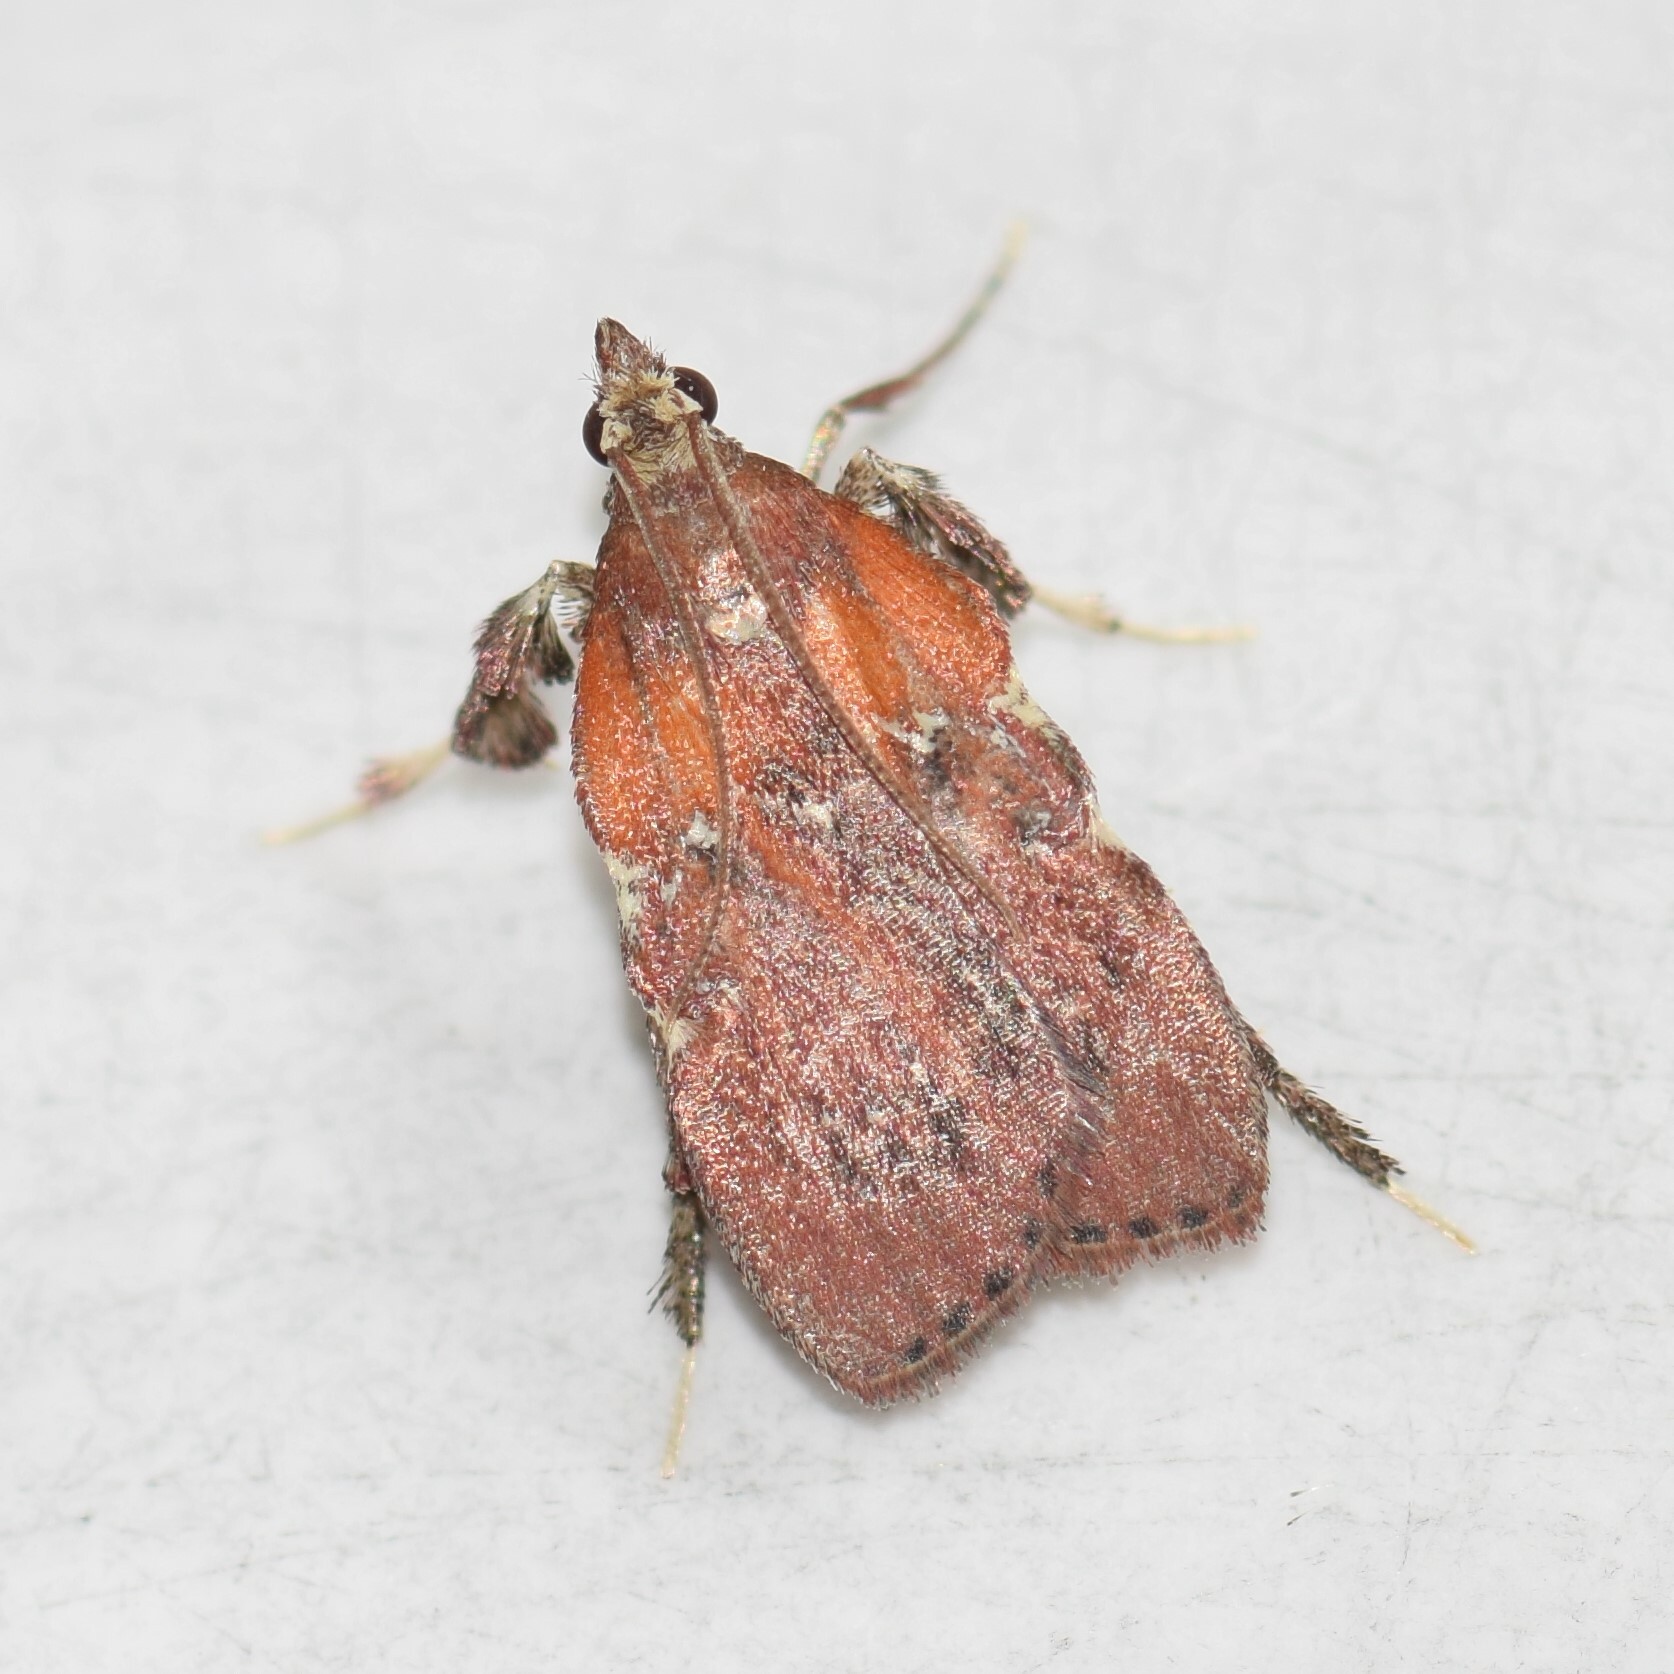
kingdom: Animalia
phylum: Arthropoda
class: Insecta
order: Lepidoptera
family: Pyralidae
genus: Galasa
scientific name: Galasa nigrinodis
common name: Boxwood leaftier moth
